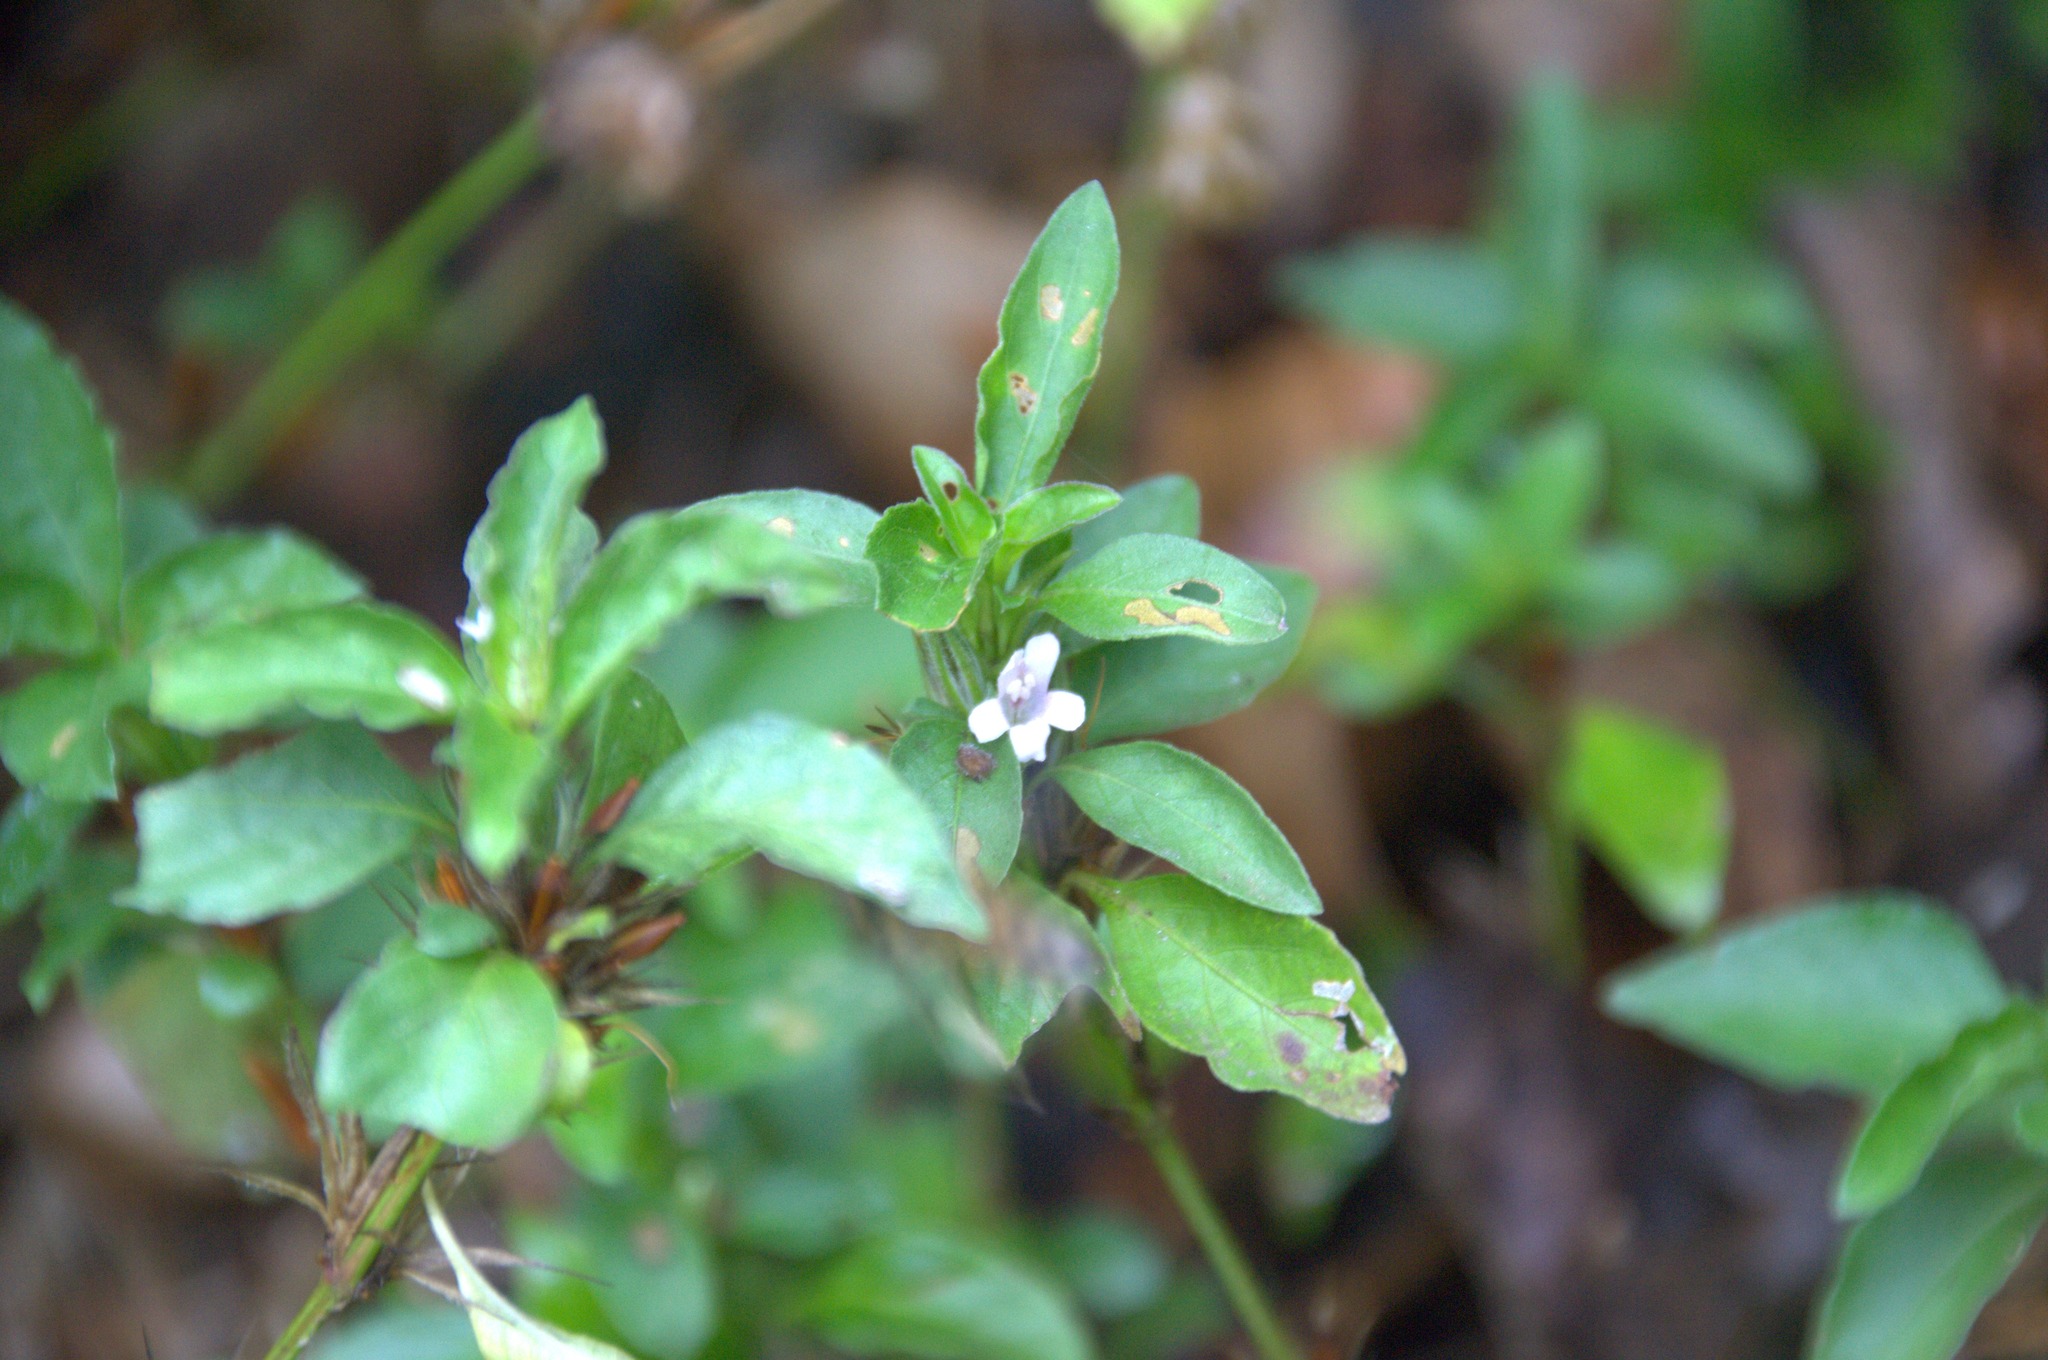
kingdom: Plantae
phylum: Tracheophyta
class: Magnoliopsida
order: Lamiales
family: Acanthaceae
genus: Dyschoriste
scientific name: Dyschoriste quadrangularis
